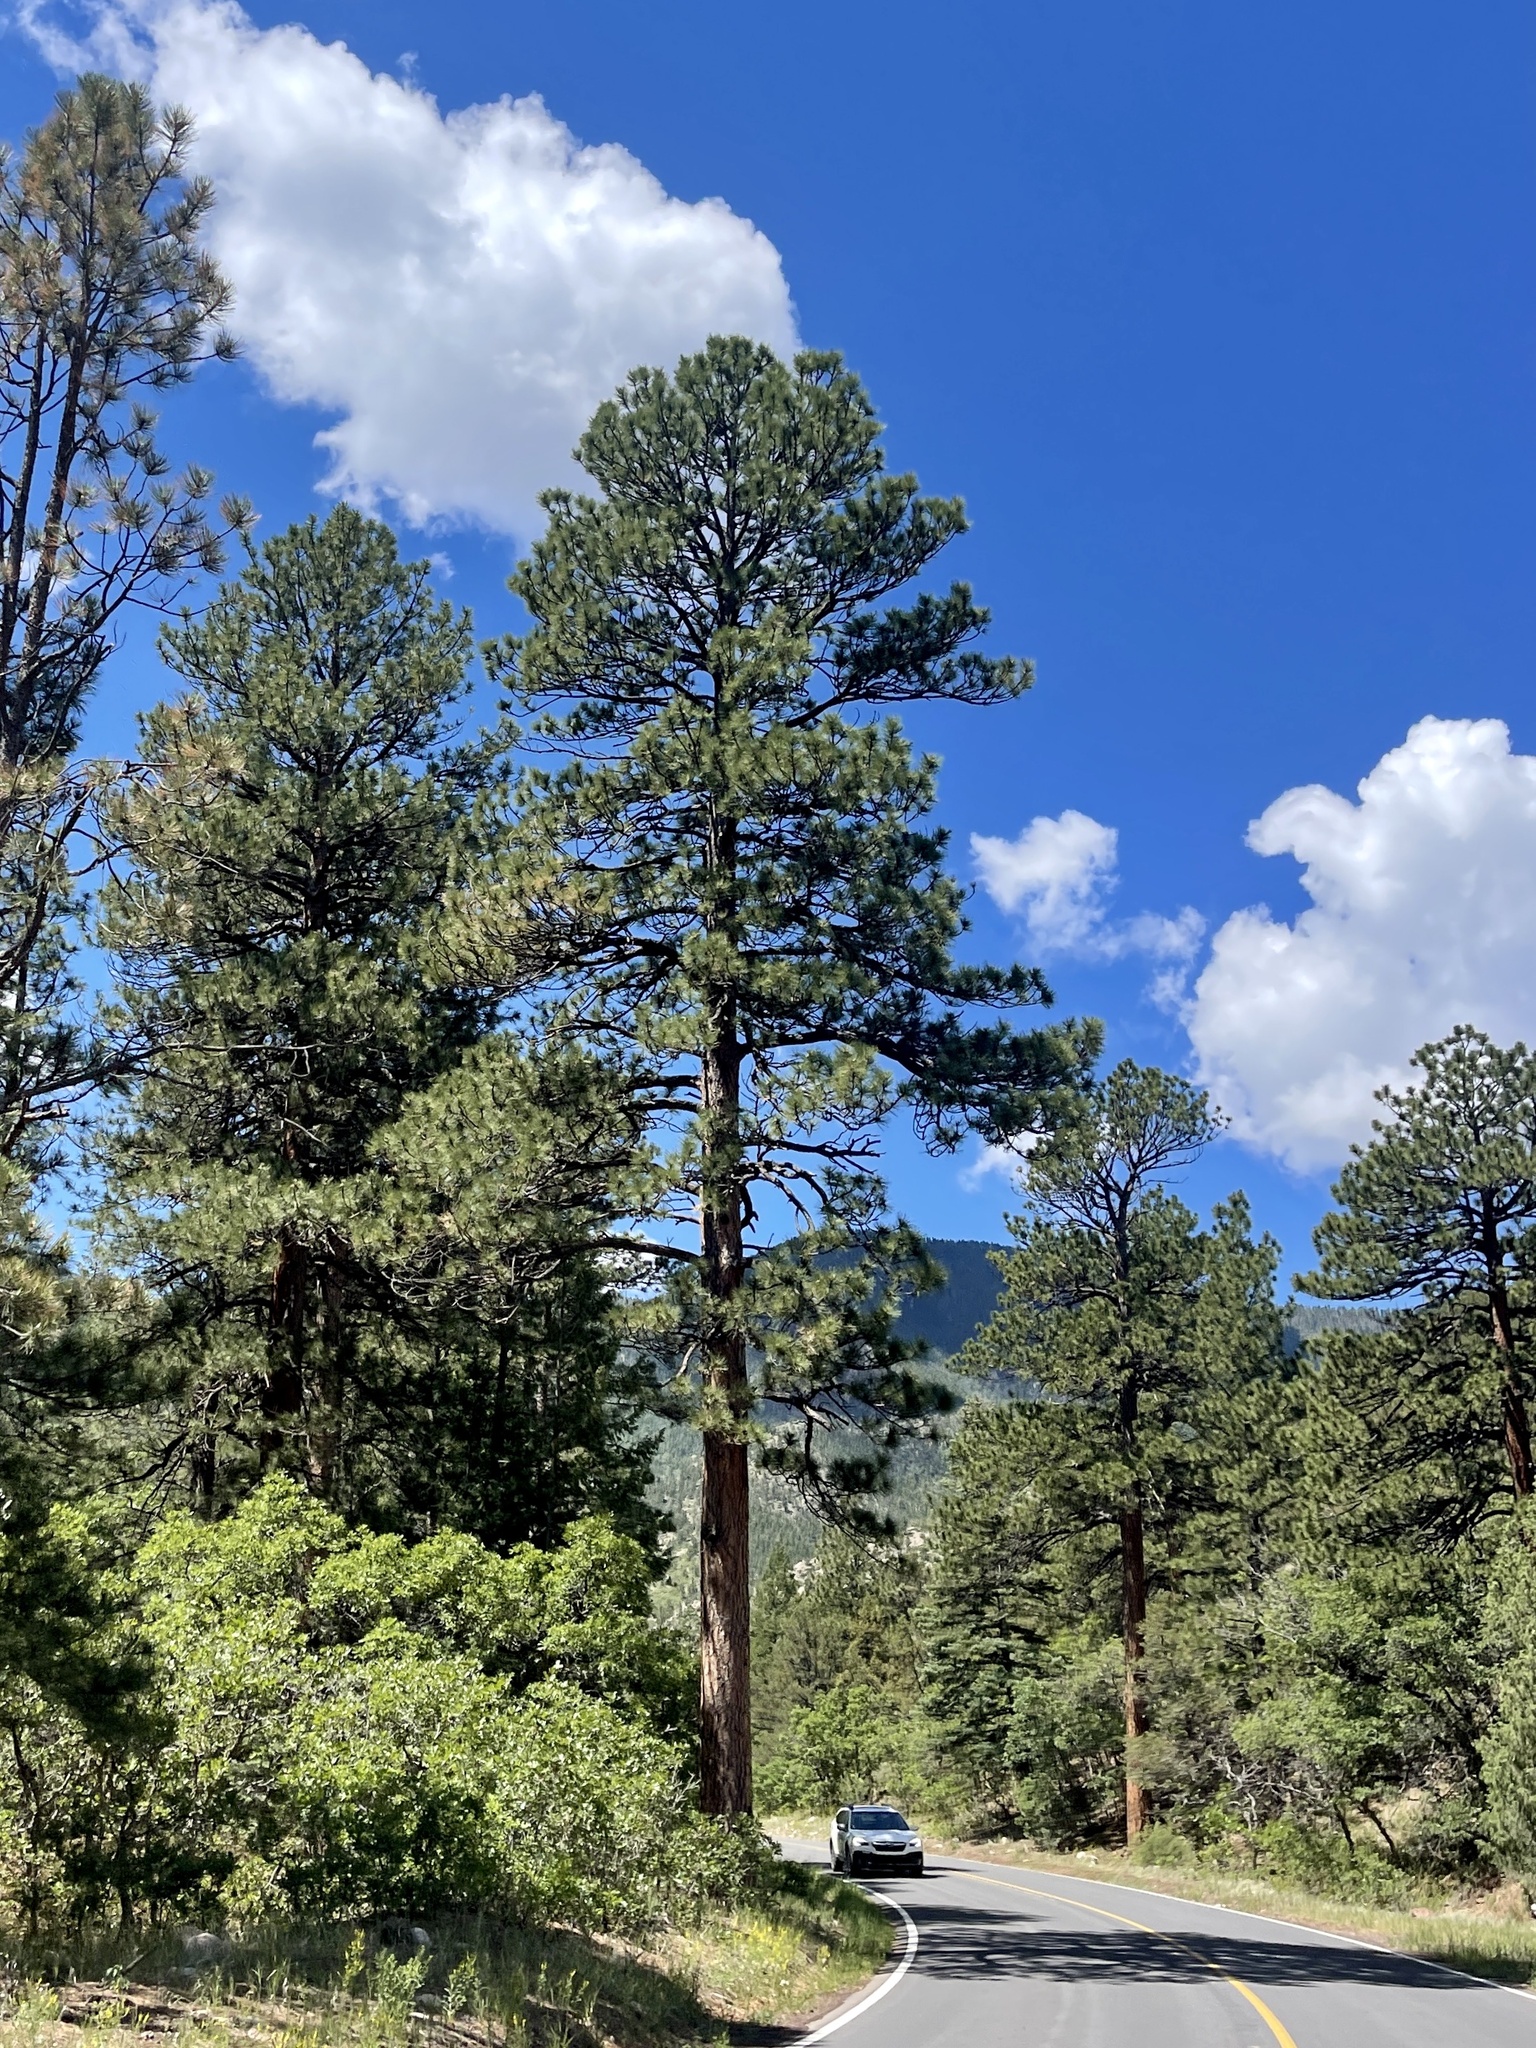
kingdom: Plantae
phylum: Tracheophyta
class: Pinopsida
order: Pinales
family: Pinaceae
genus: Pinus
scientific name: Pinus ponderosa
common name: Western yellow-pine
